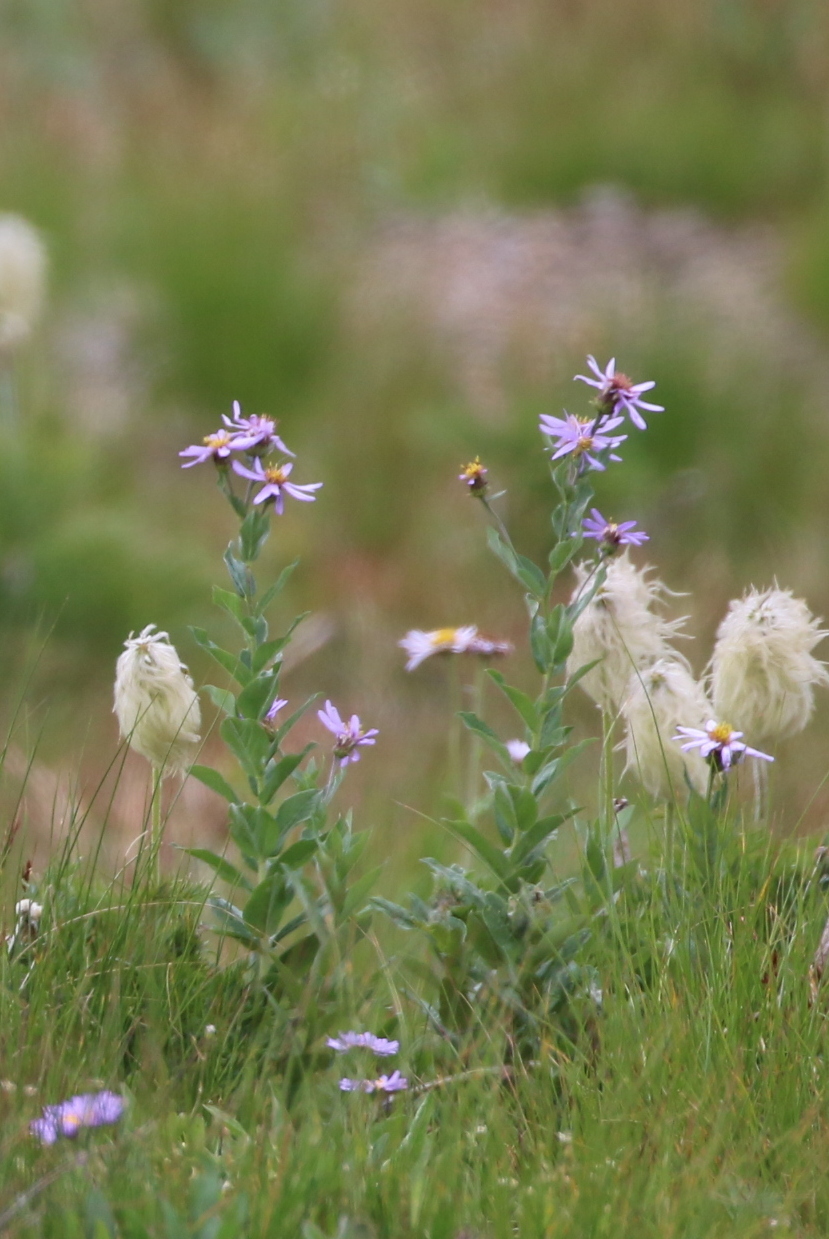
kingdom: Plantae
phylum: Tracheophyta
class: Magnoliopsida
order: Asterales
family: Asteraceae
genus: Eucephalus
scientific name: Eucephalus engelmannii
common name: Engelmann's aster
